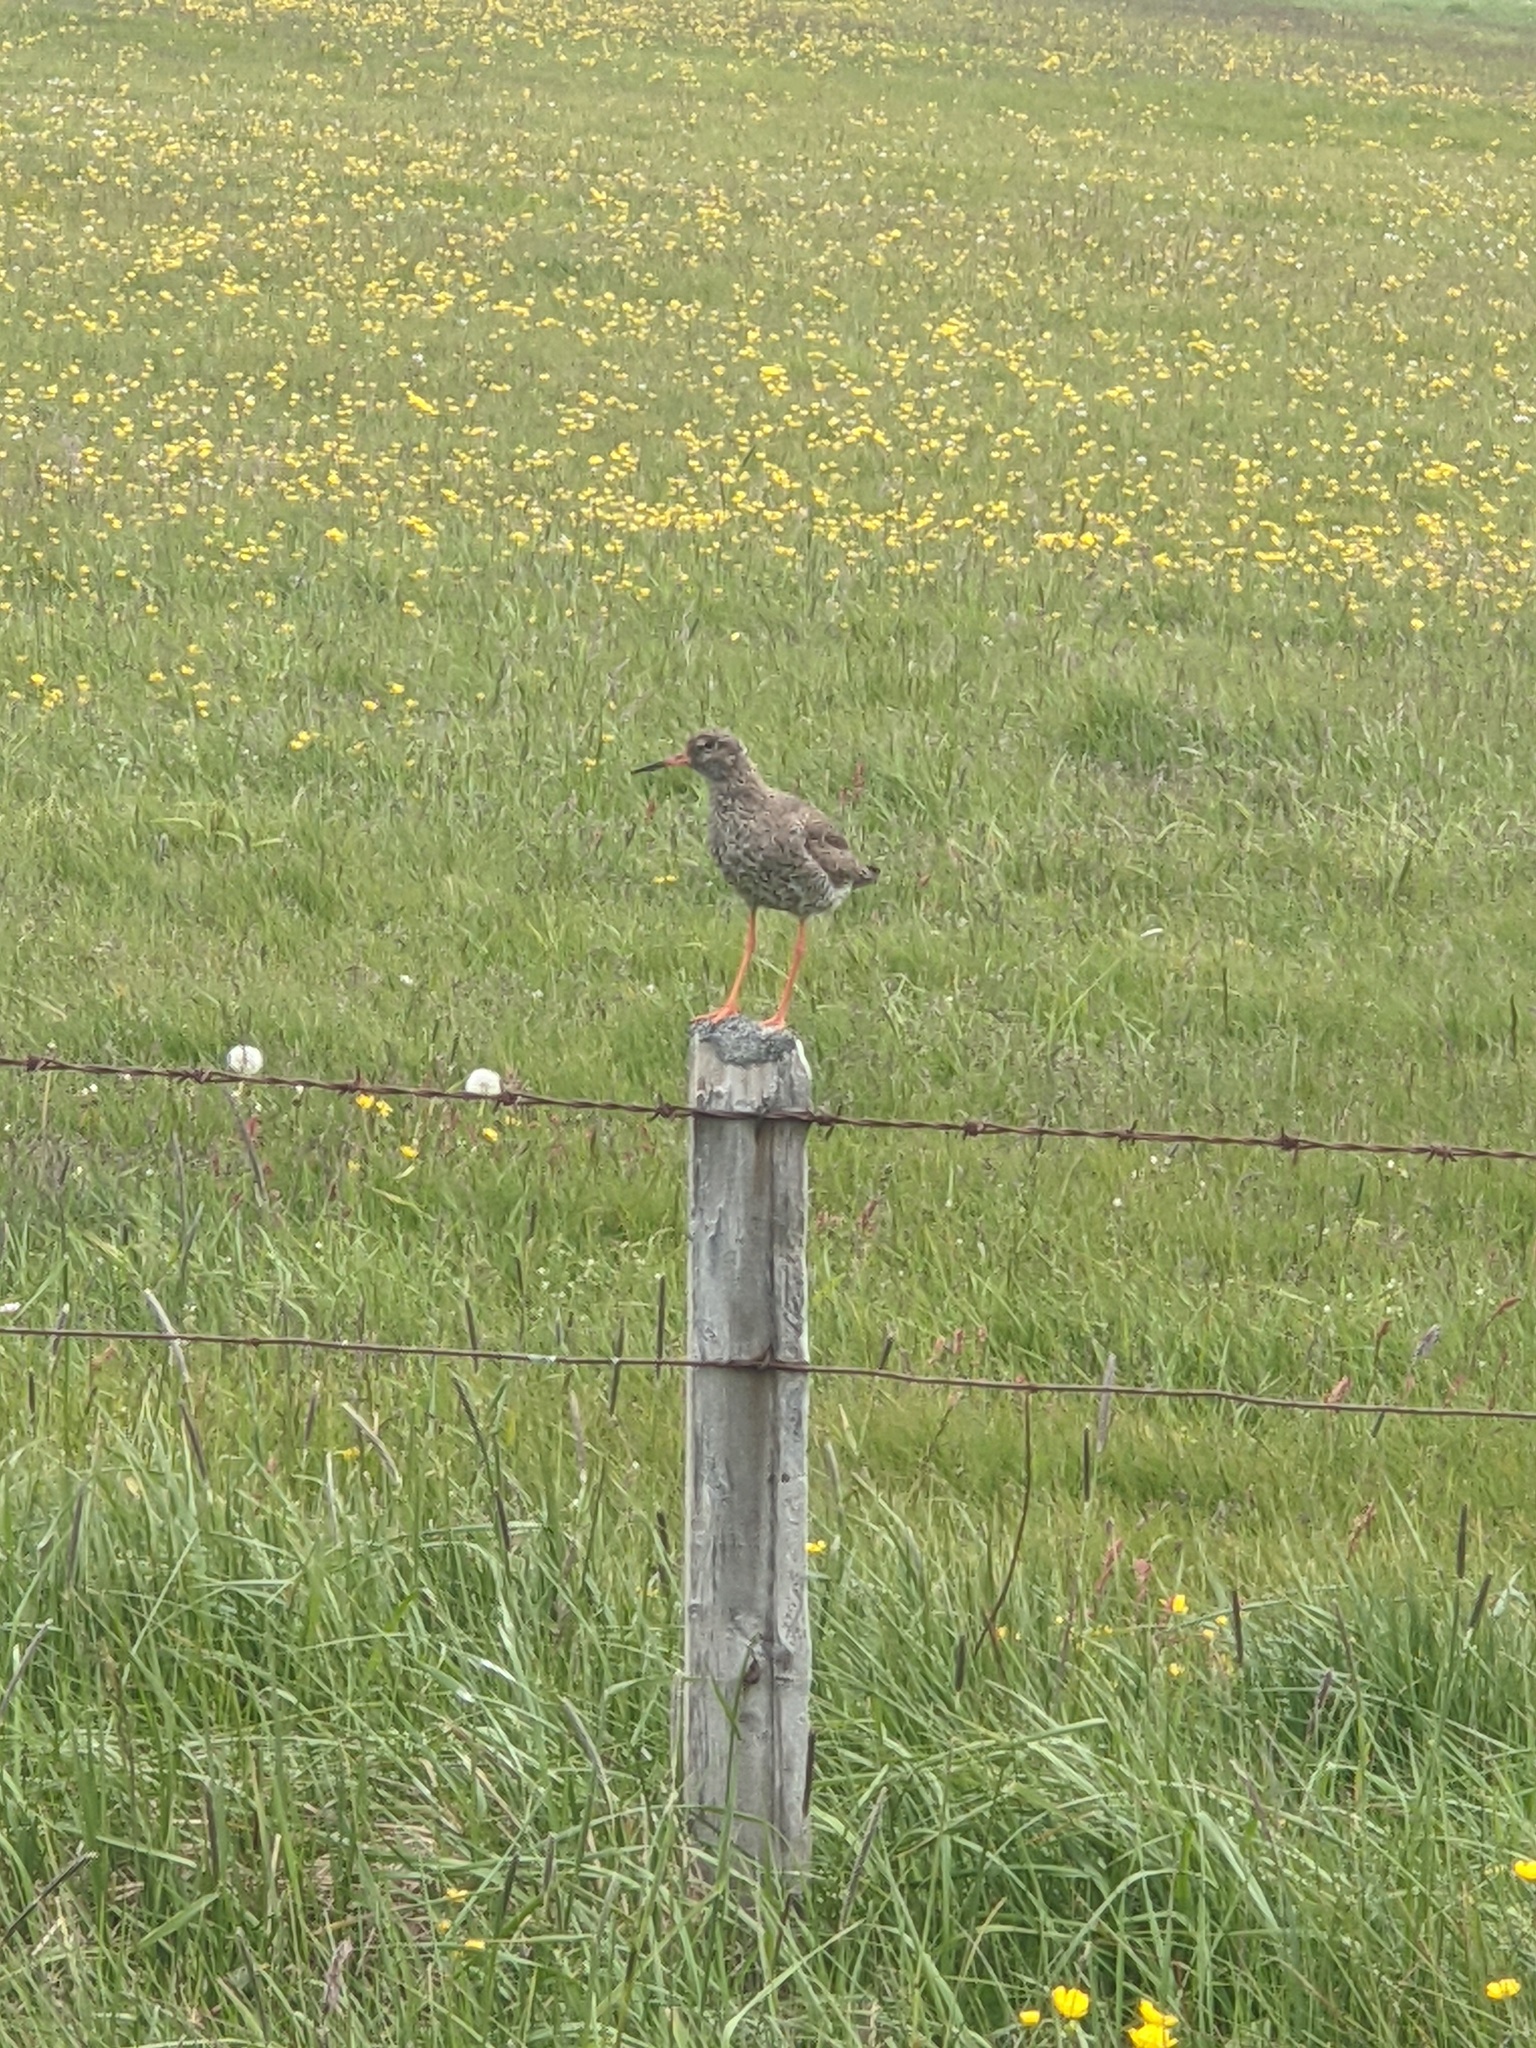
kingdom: Animalia
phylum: Chordata
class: Aves
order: Charadriiformes
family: Scolopacidae
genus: Tringa
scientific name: Tringa totanus
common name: Common redshank
